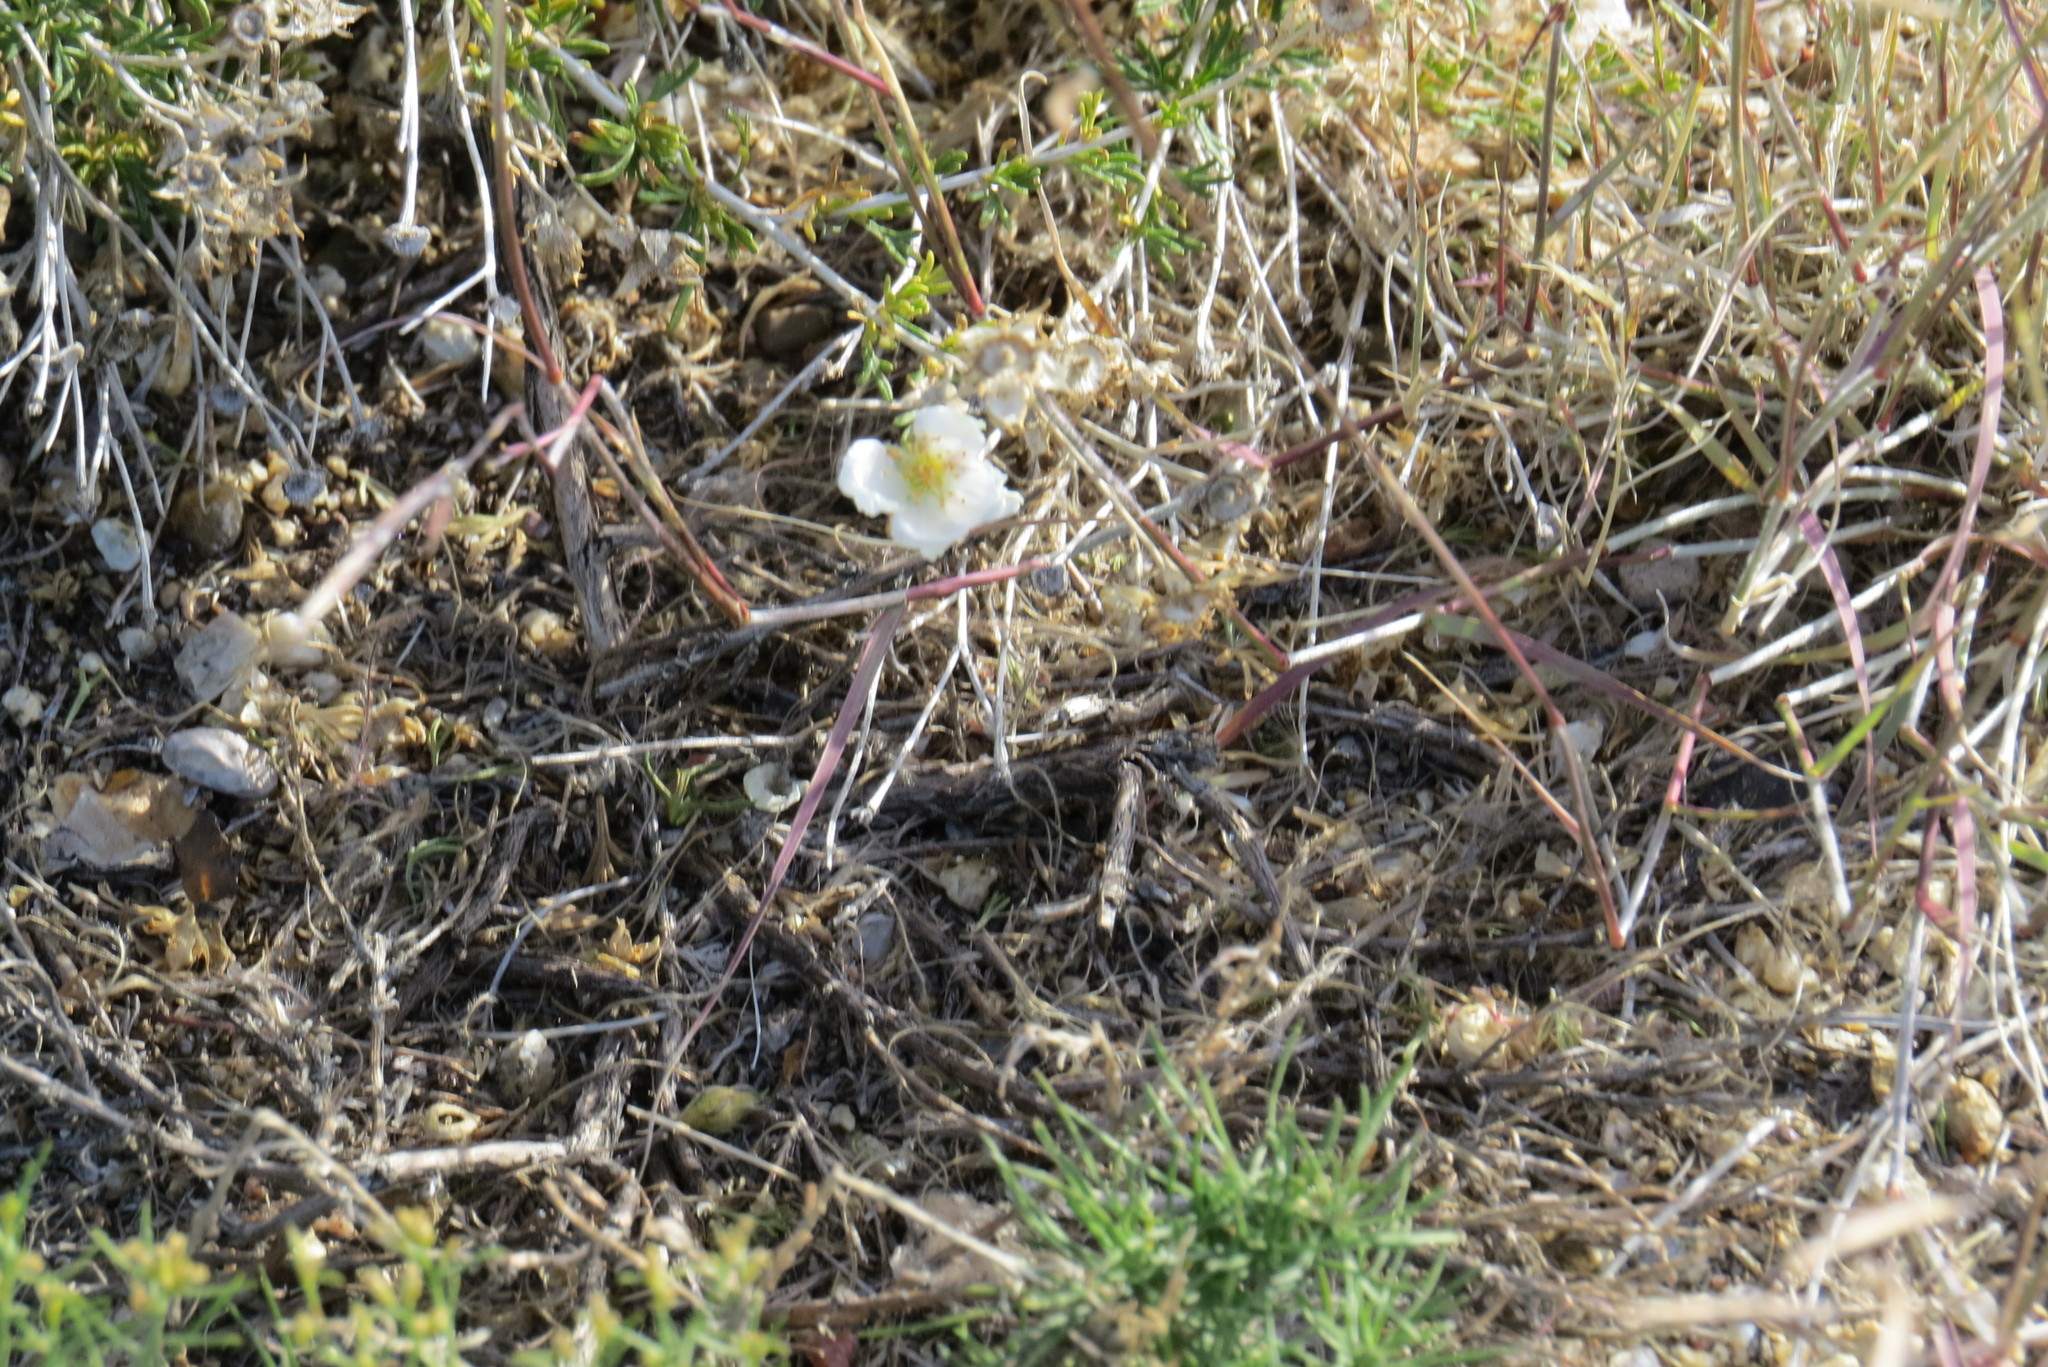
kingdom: Plantae
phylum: Tracheophyta
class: Magnoliopsida
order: Rosales
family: Rosaceae
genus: Fallugia
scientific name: Fallugia paradoxa
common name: Apache-plume
